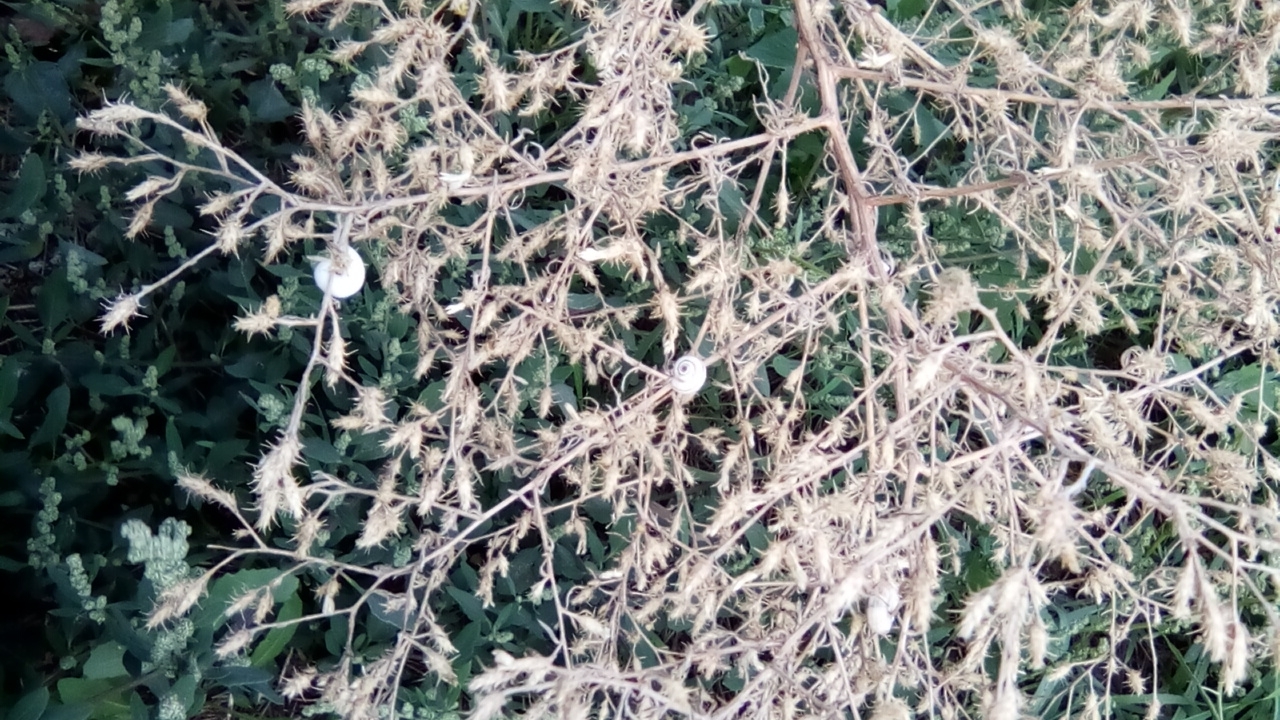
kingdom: Plantae
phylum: Tracheophyta
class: Magnoliopsida
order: Asterales
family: Asteraceae
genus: Centaurea
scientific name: Centaurea diffusa
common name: Diffuse knapweed
